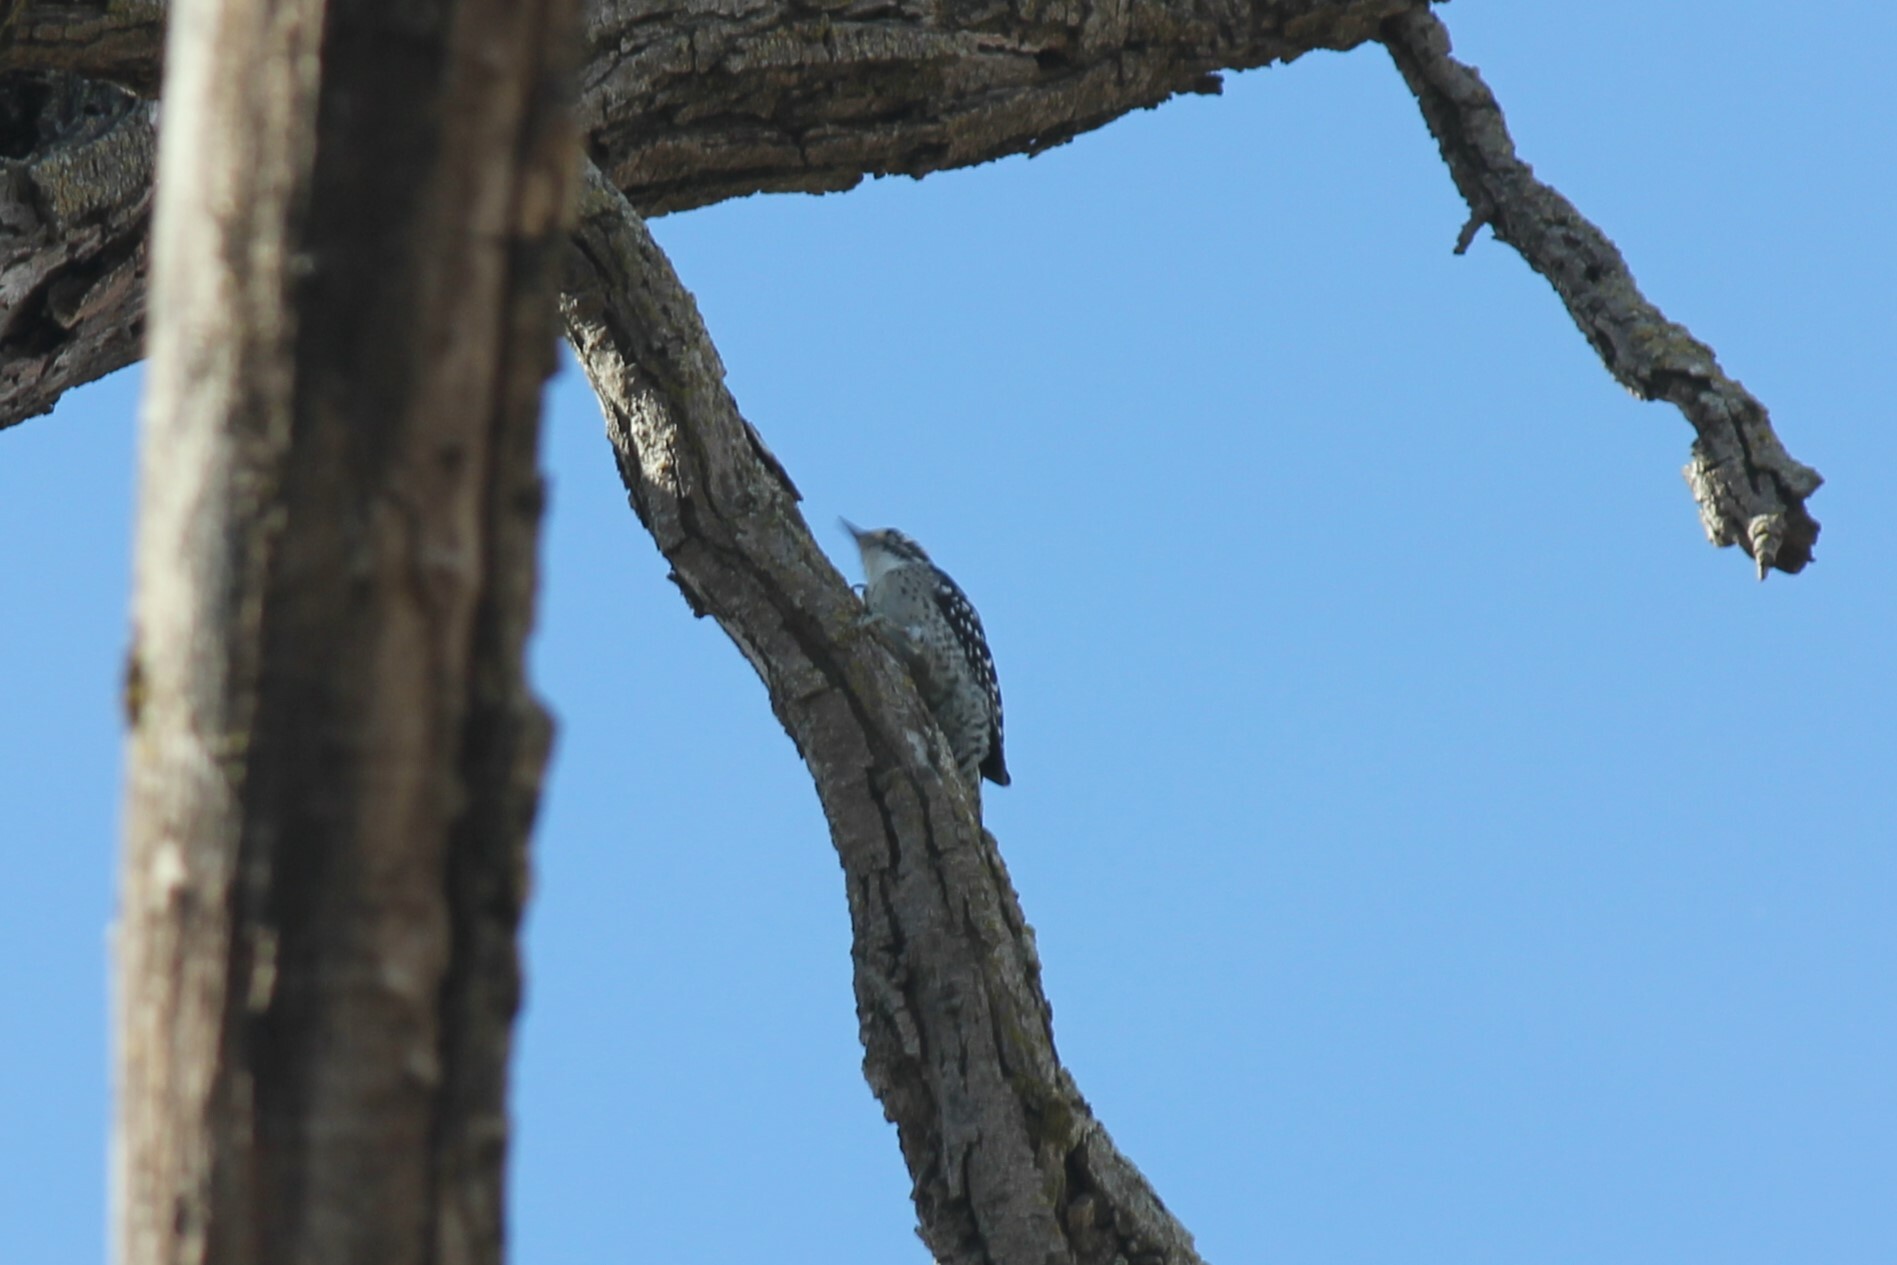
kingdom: Animalia
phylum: Chordata
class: Aves
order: Piciformes
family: Picidae
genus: Dryobates
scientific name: Dryobates nuttallii
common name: Nuttall's woodpecker
